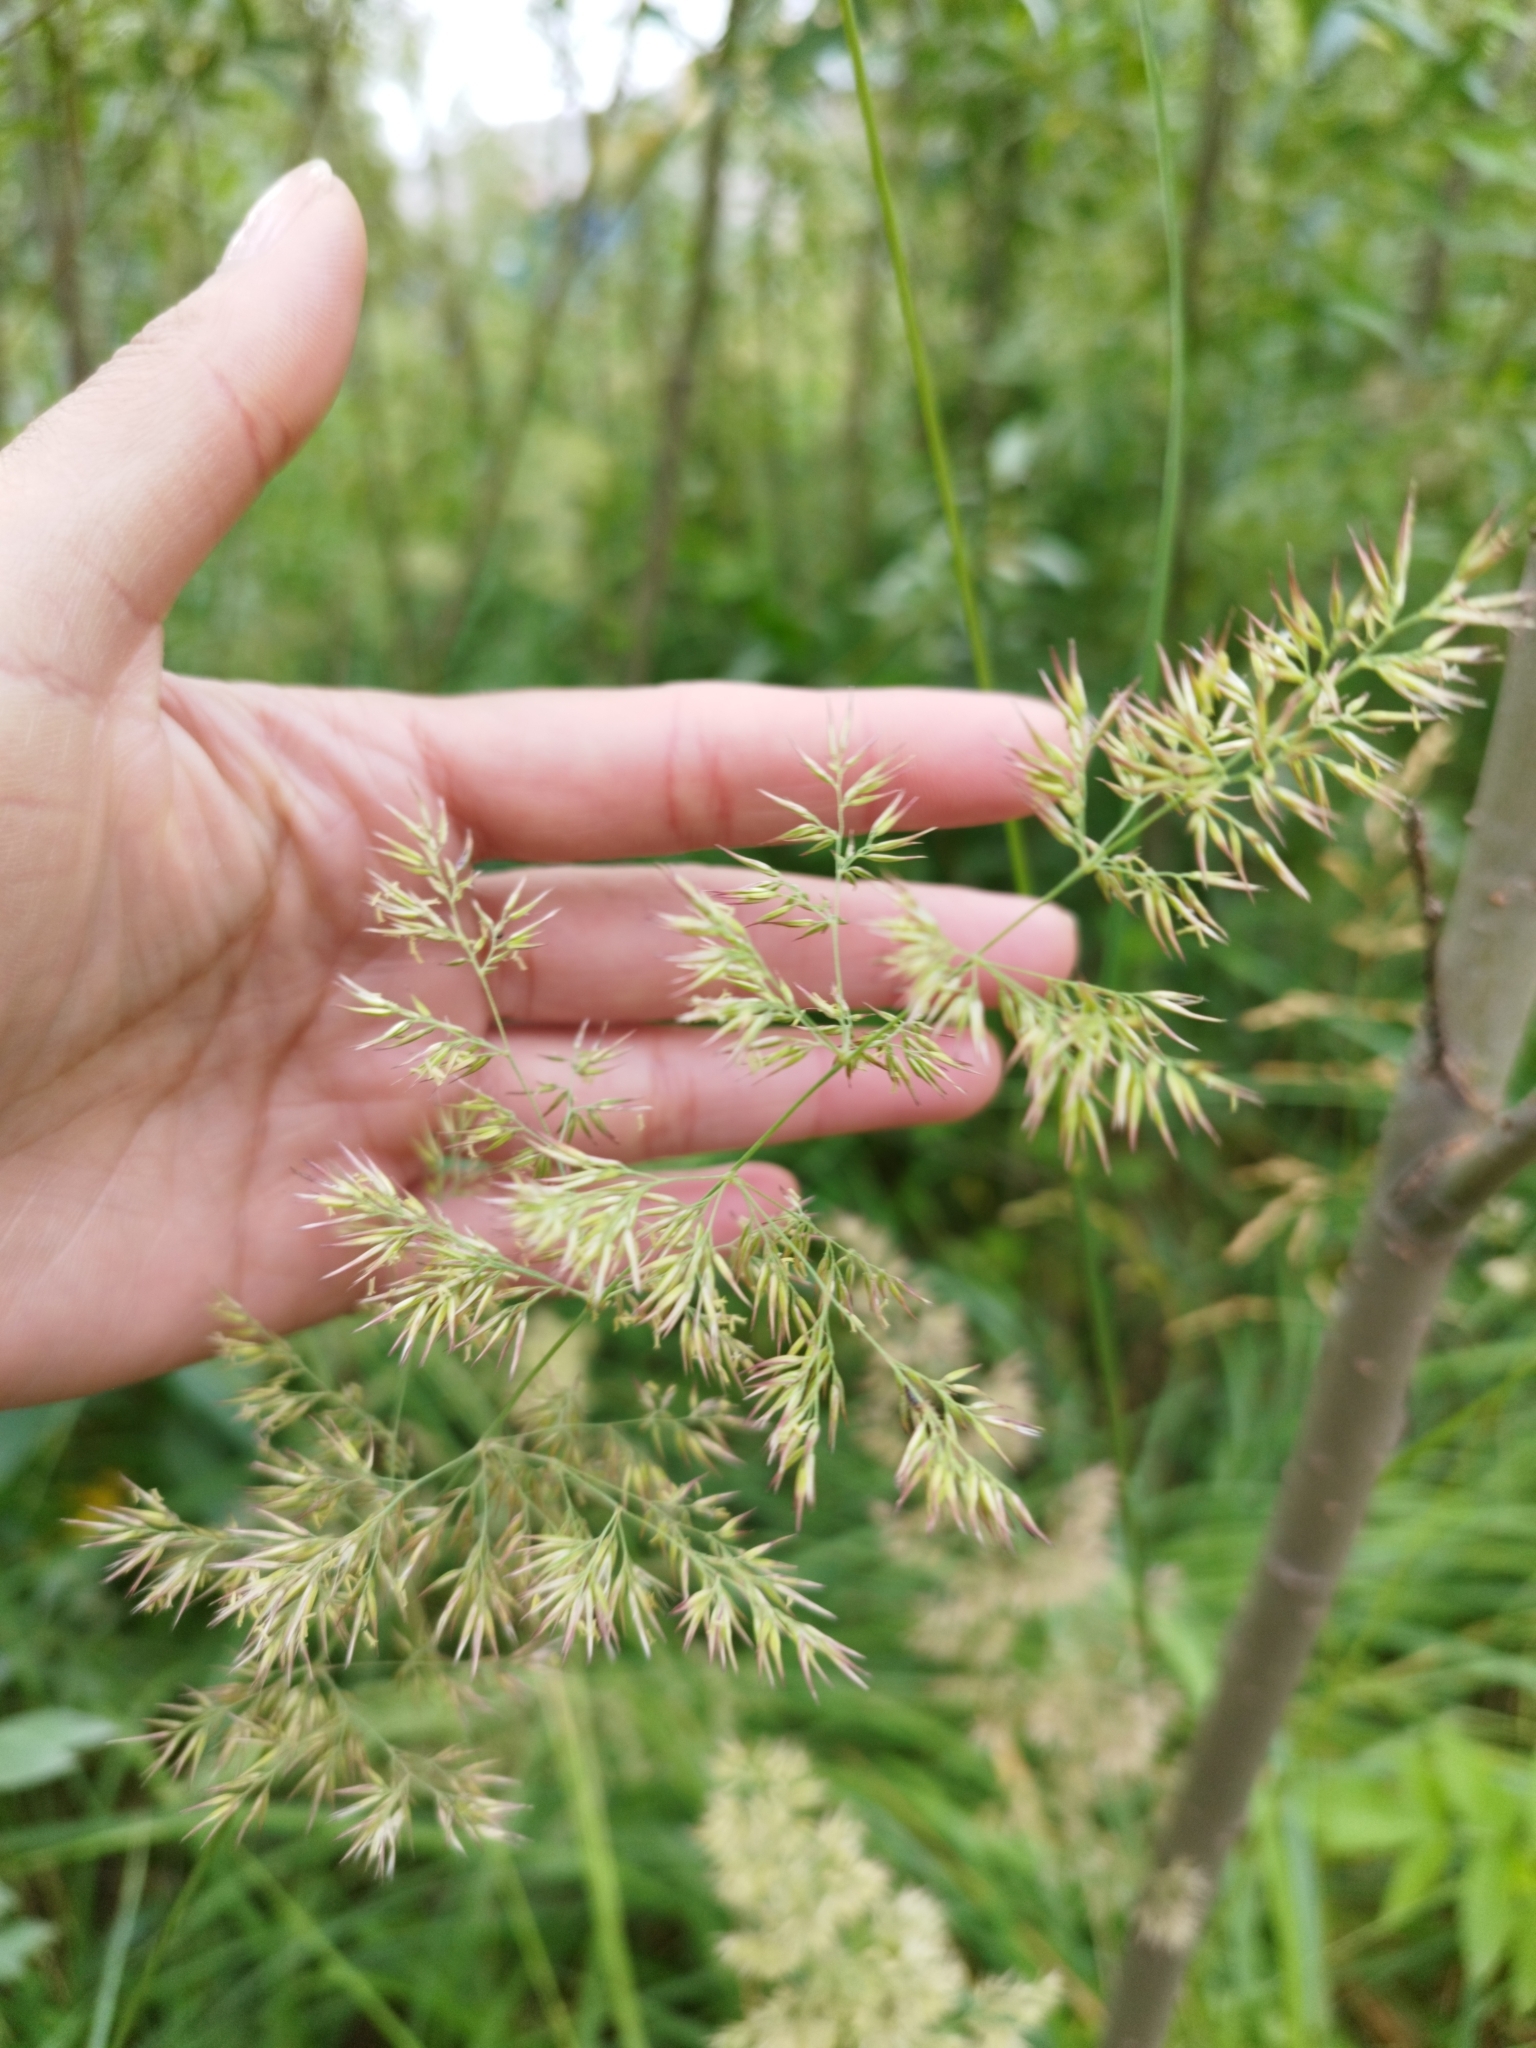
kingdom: Plantae
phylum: Tracheophyta
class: Liliopsida
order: Poales
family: Poaceae
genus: Calamagrostis
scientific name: Calamagrostis epigejos
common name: Wood small-reed
